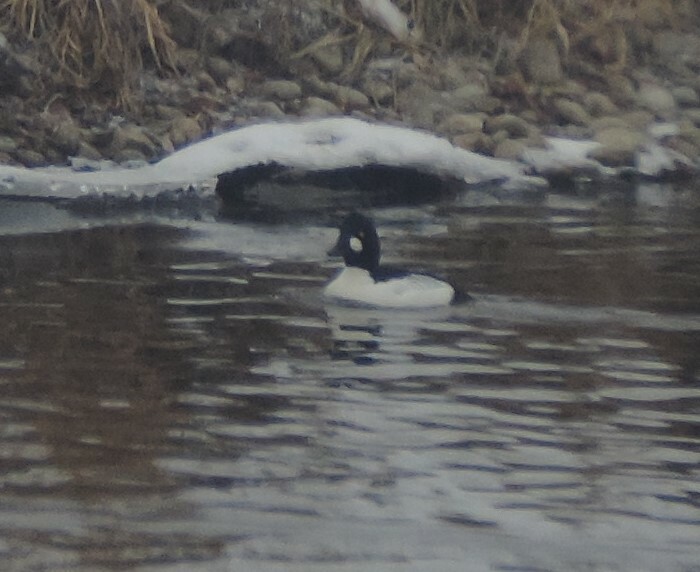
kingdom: Animalia
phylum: Chordata
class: Aves
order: Anseriformes
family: Anatidae
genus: Bucephala
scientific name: Bucephala clangula
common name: Common goldeneye
